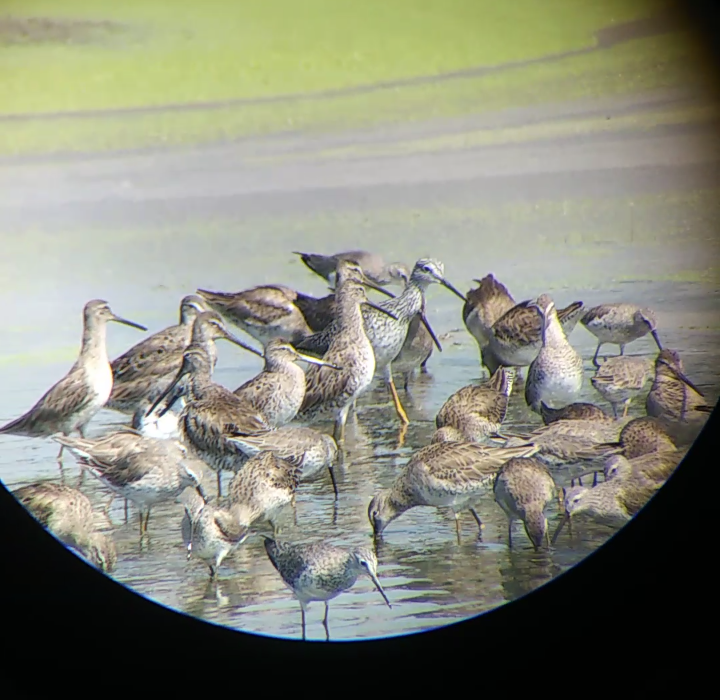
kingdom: Animalia
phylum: Chordata
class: Aves
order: Charadriiformes
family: Scolopacidae
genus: Tringa
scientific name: Tringa melanoleuca
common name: Greater yellowlegs
